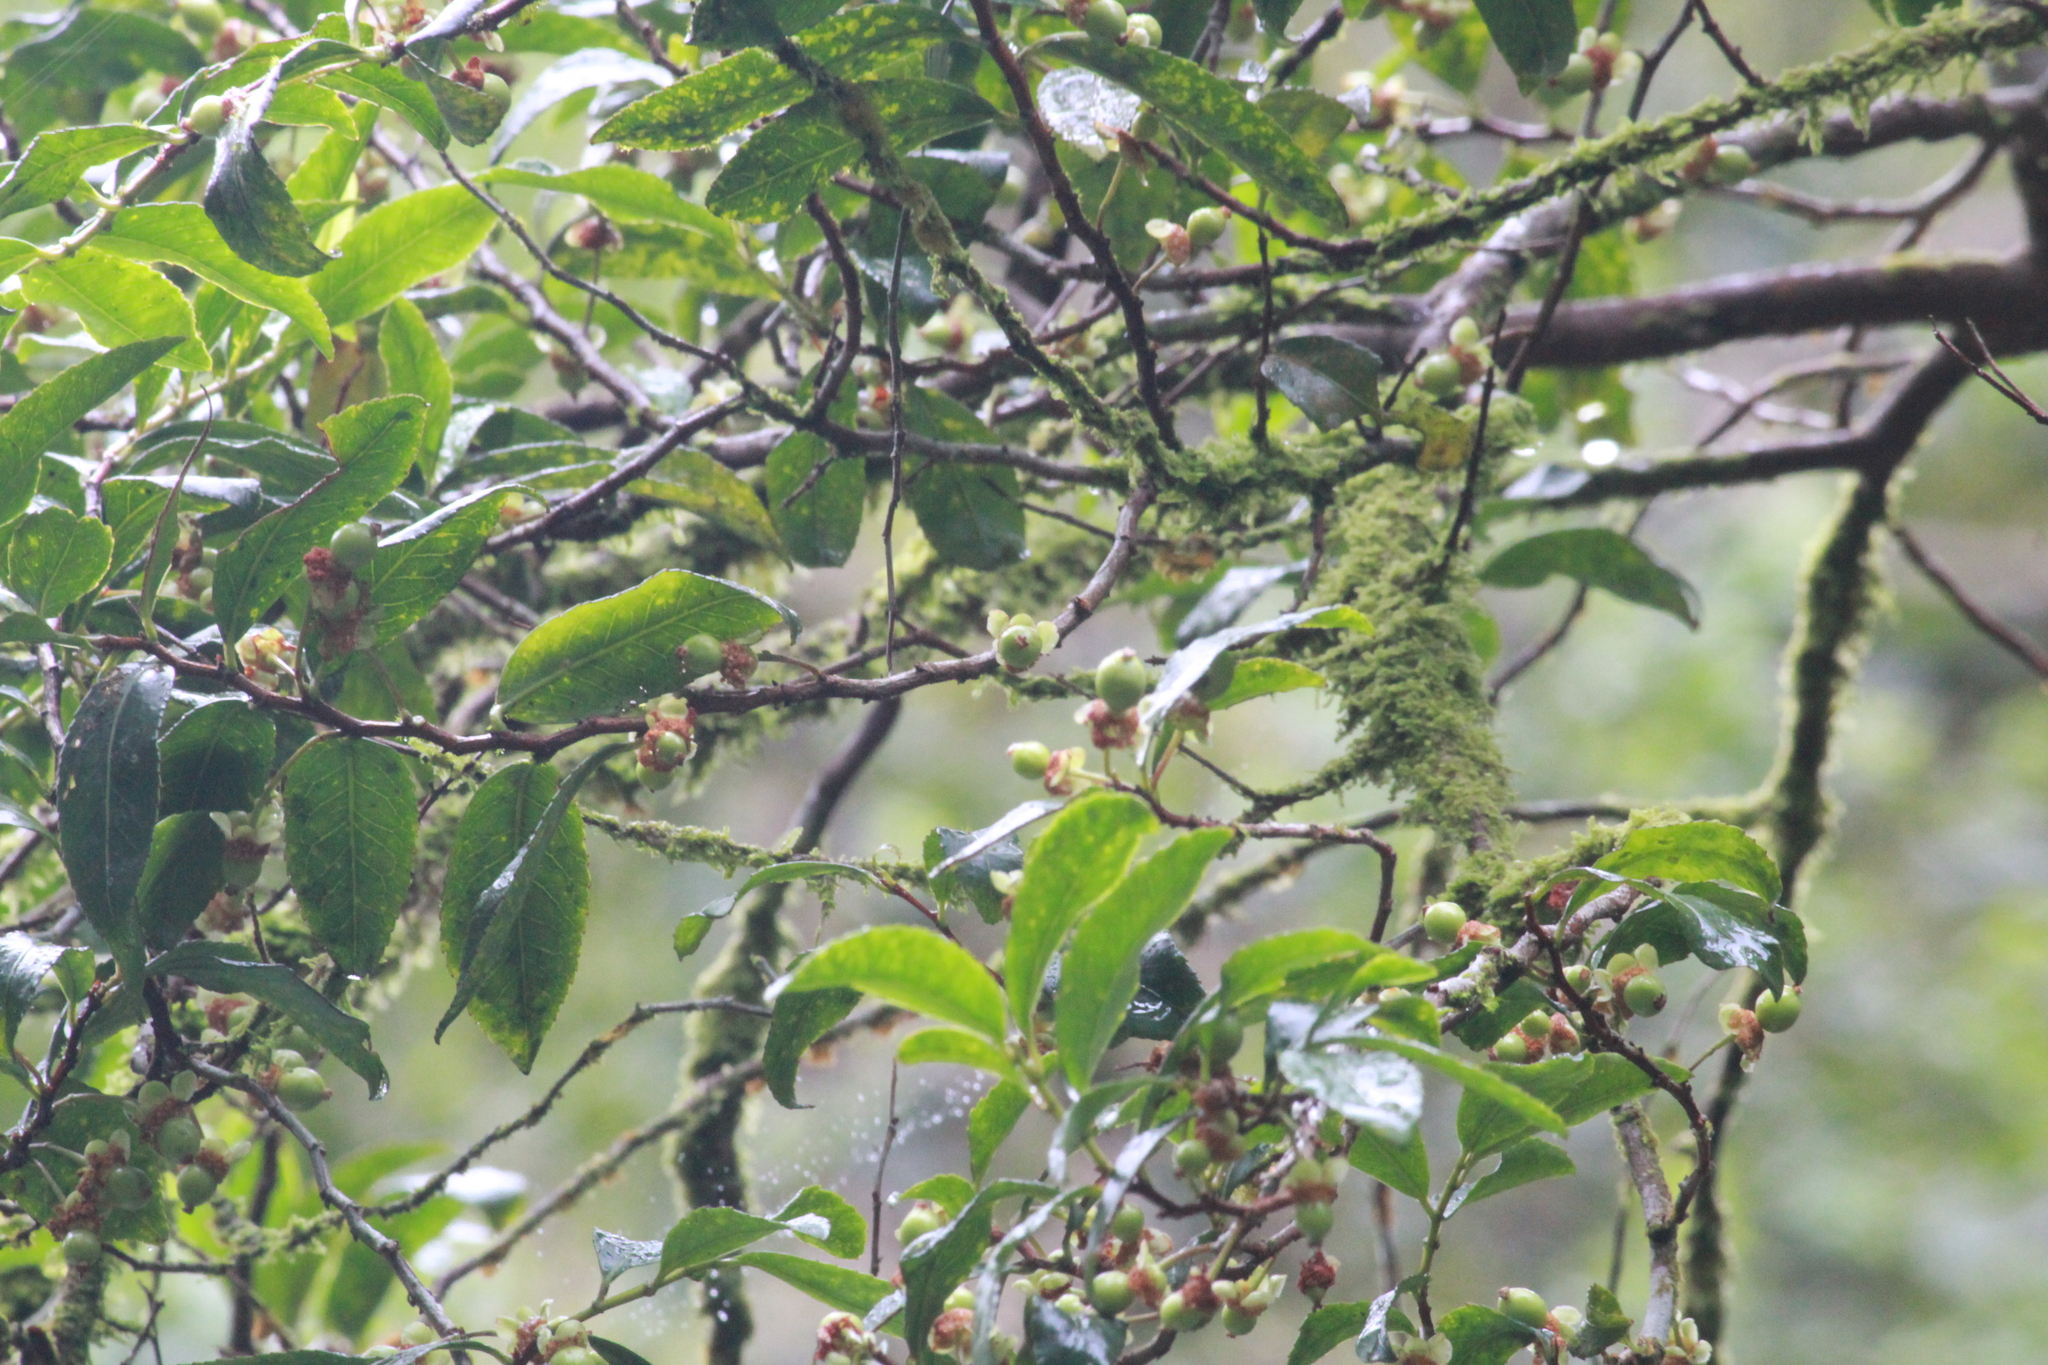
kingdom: Plantae
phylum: Tracheophyta
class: Magnoliopsida
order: Malpighiales
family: Violaceae
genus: Rinorea
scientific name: Rinorea angustifolia
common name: White violet-bush
